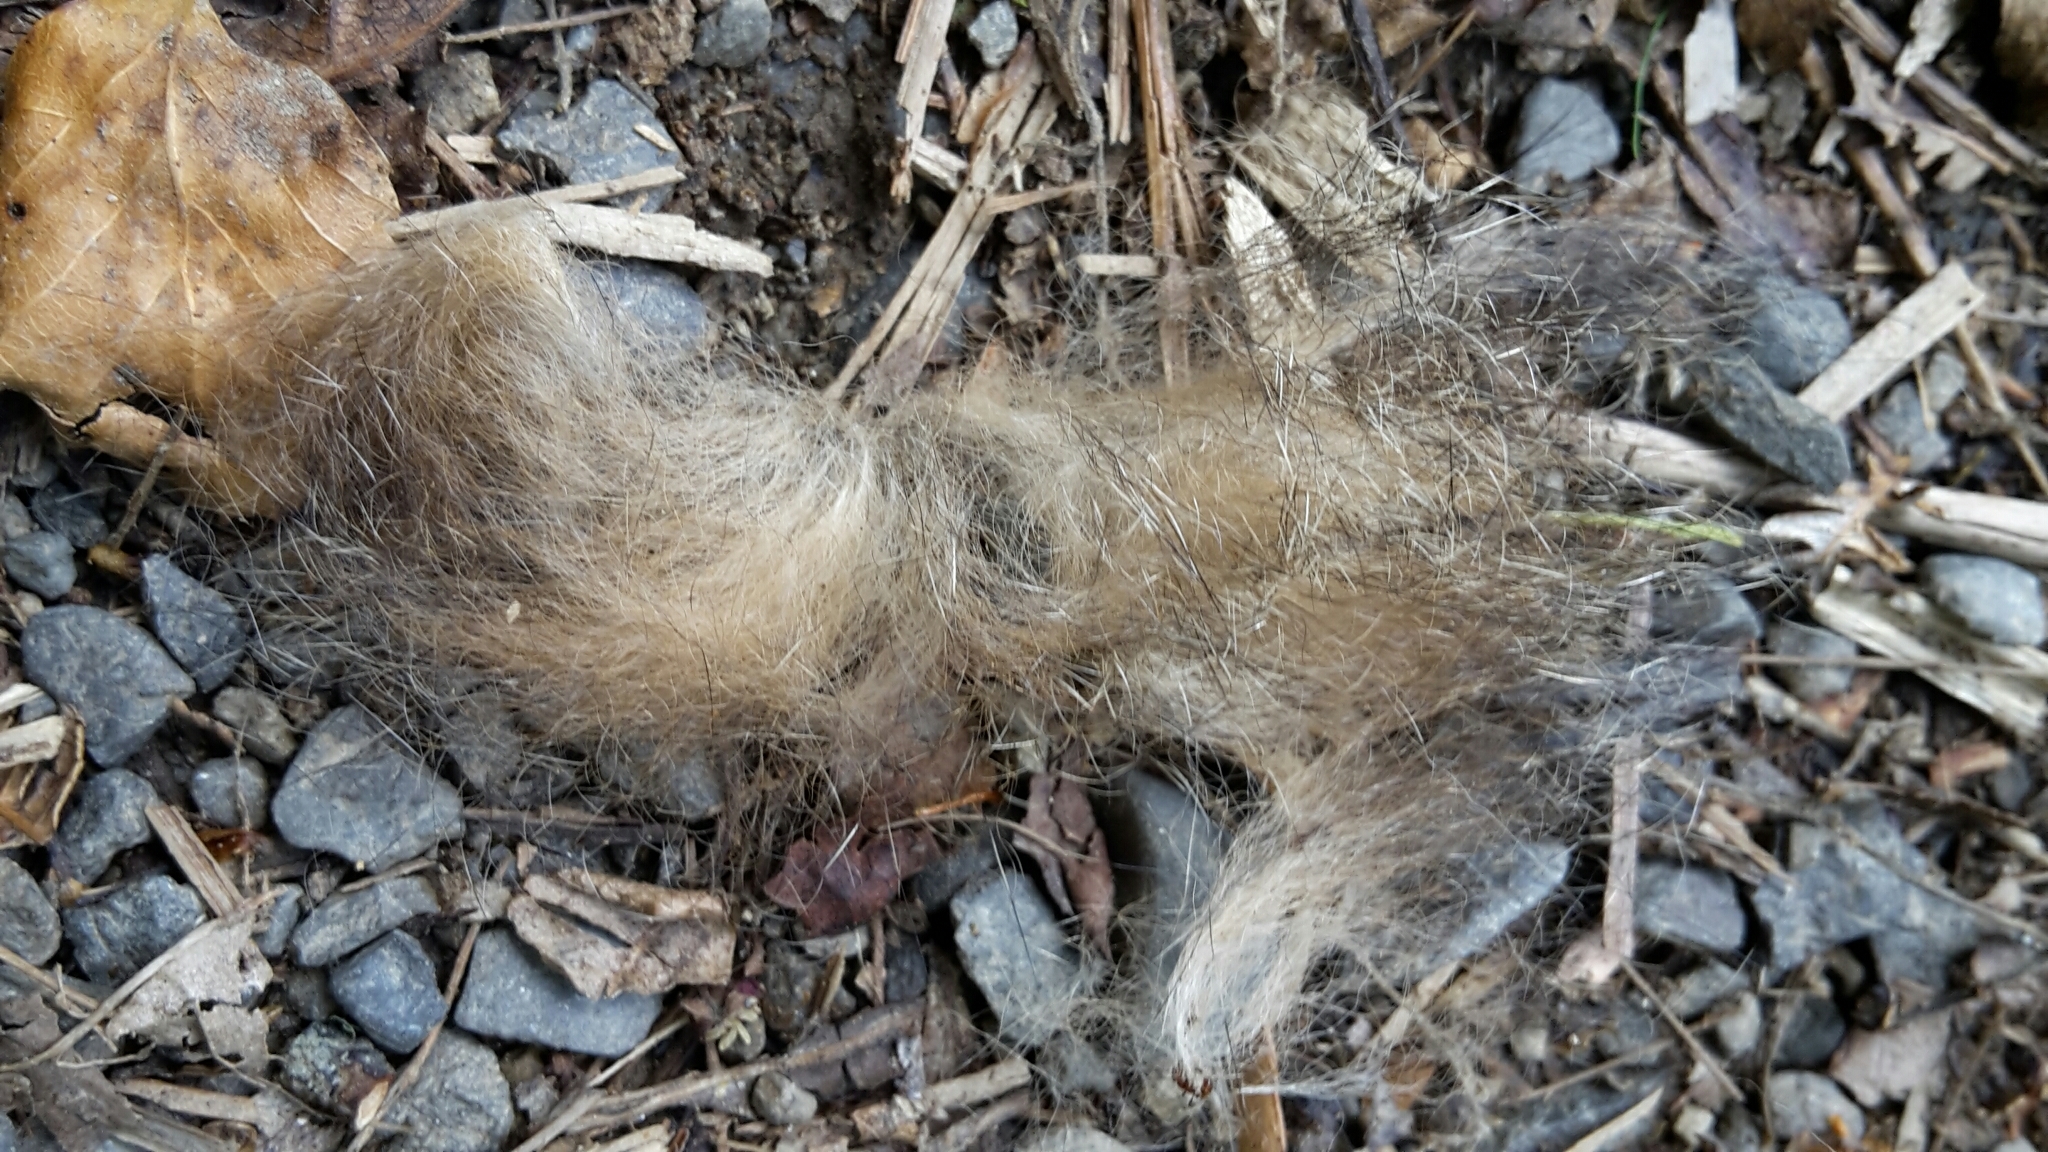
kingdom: Animalia
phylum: Chordata
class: Mammalia
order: Diprotodontia
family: Phalangeridae
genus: Trichosurus
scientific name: Trichosurus vulpecula
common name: Common brushtail
